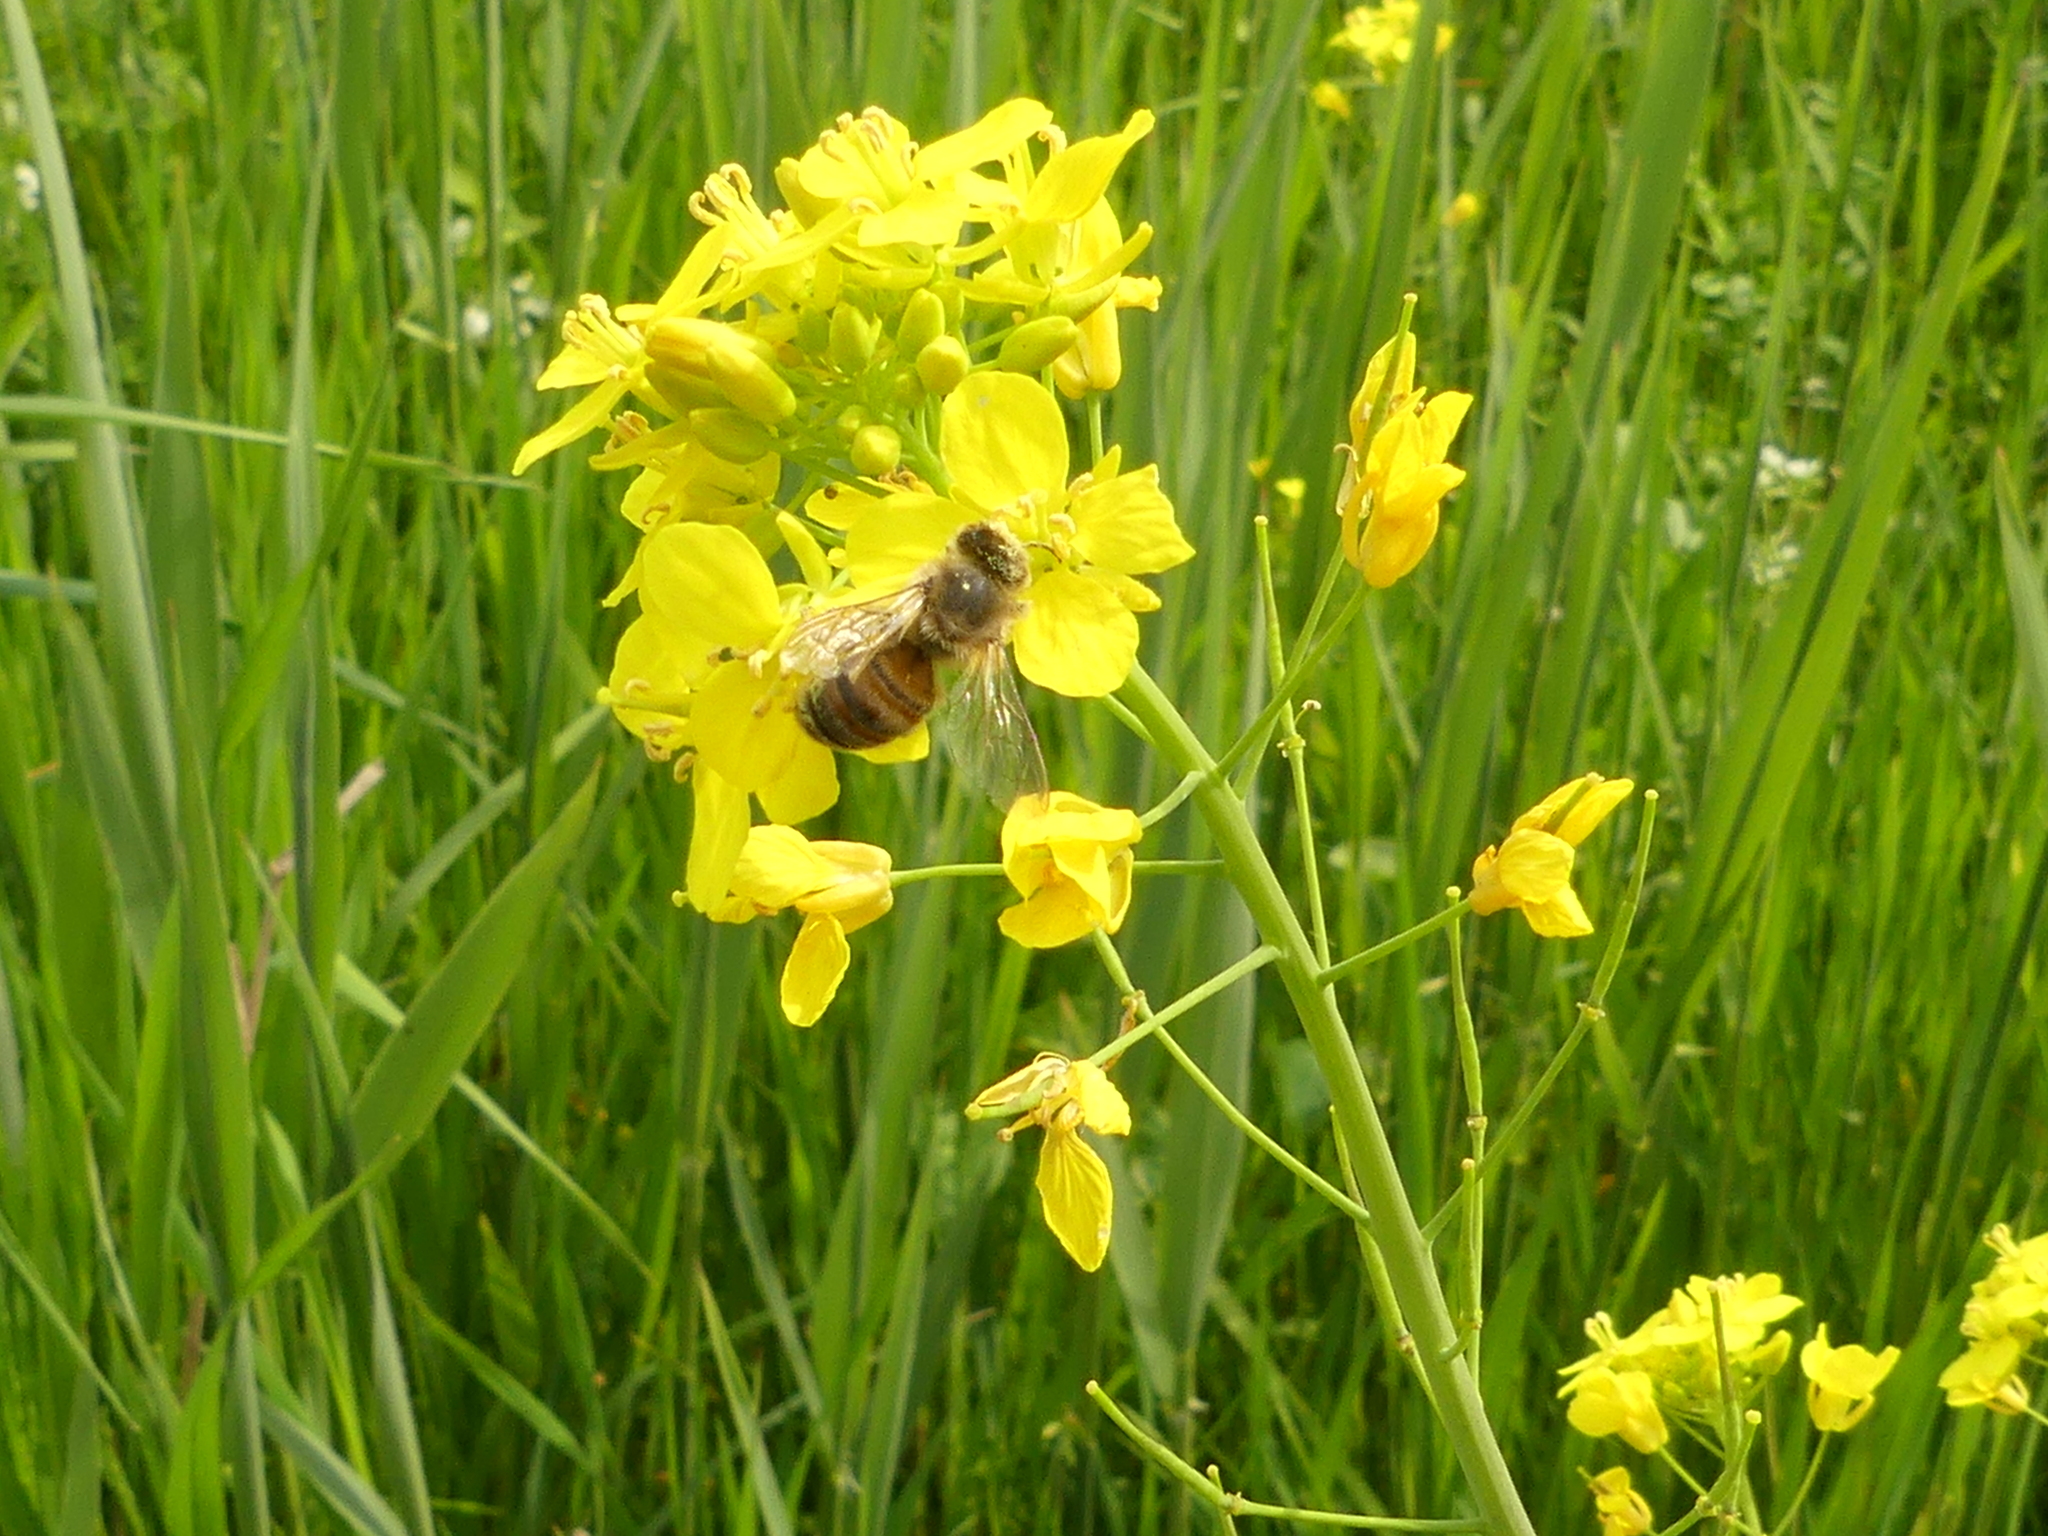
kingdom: Animalia
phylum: Arthropoda
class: Insecta
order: Hymenoptera
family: Apidae
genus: Apis
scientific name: Apis mellifera
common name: Honey bee
